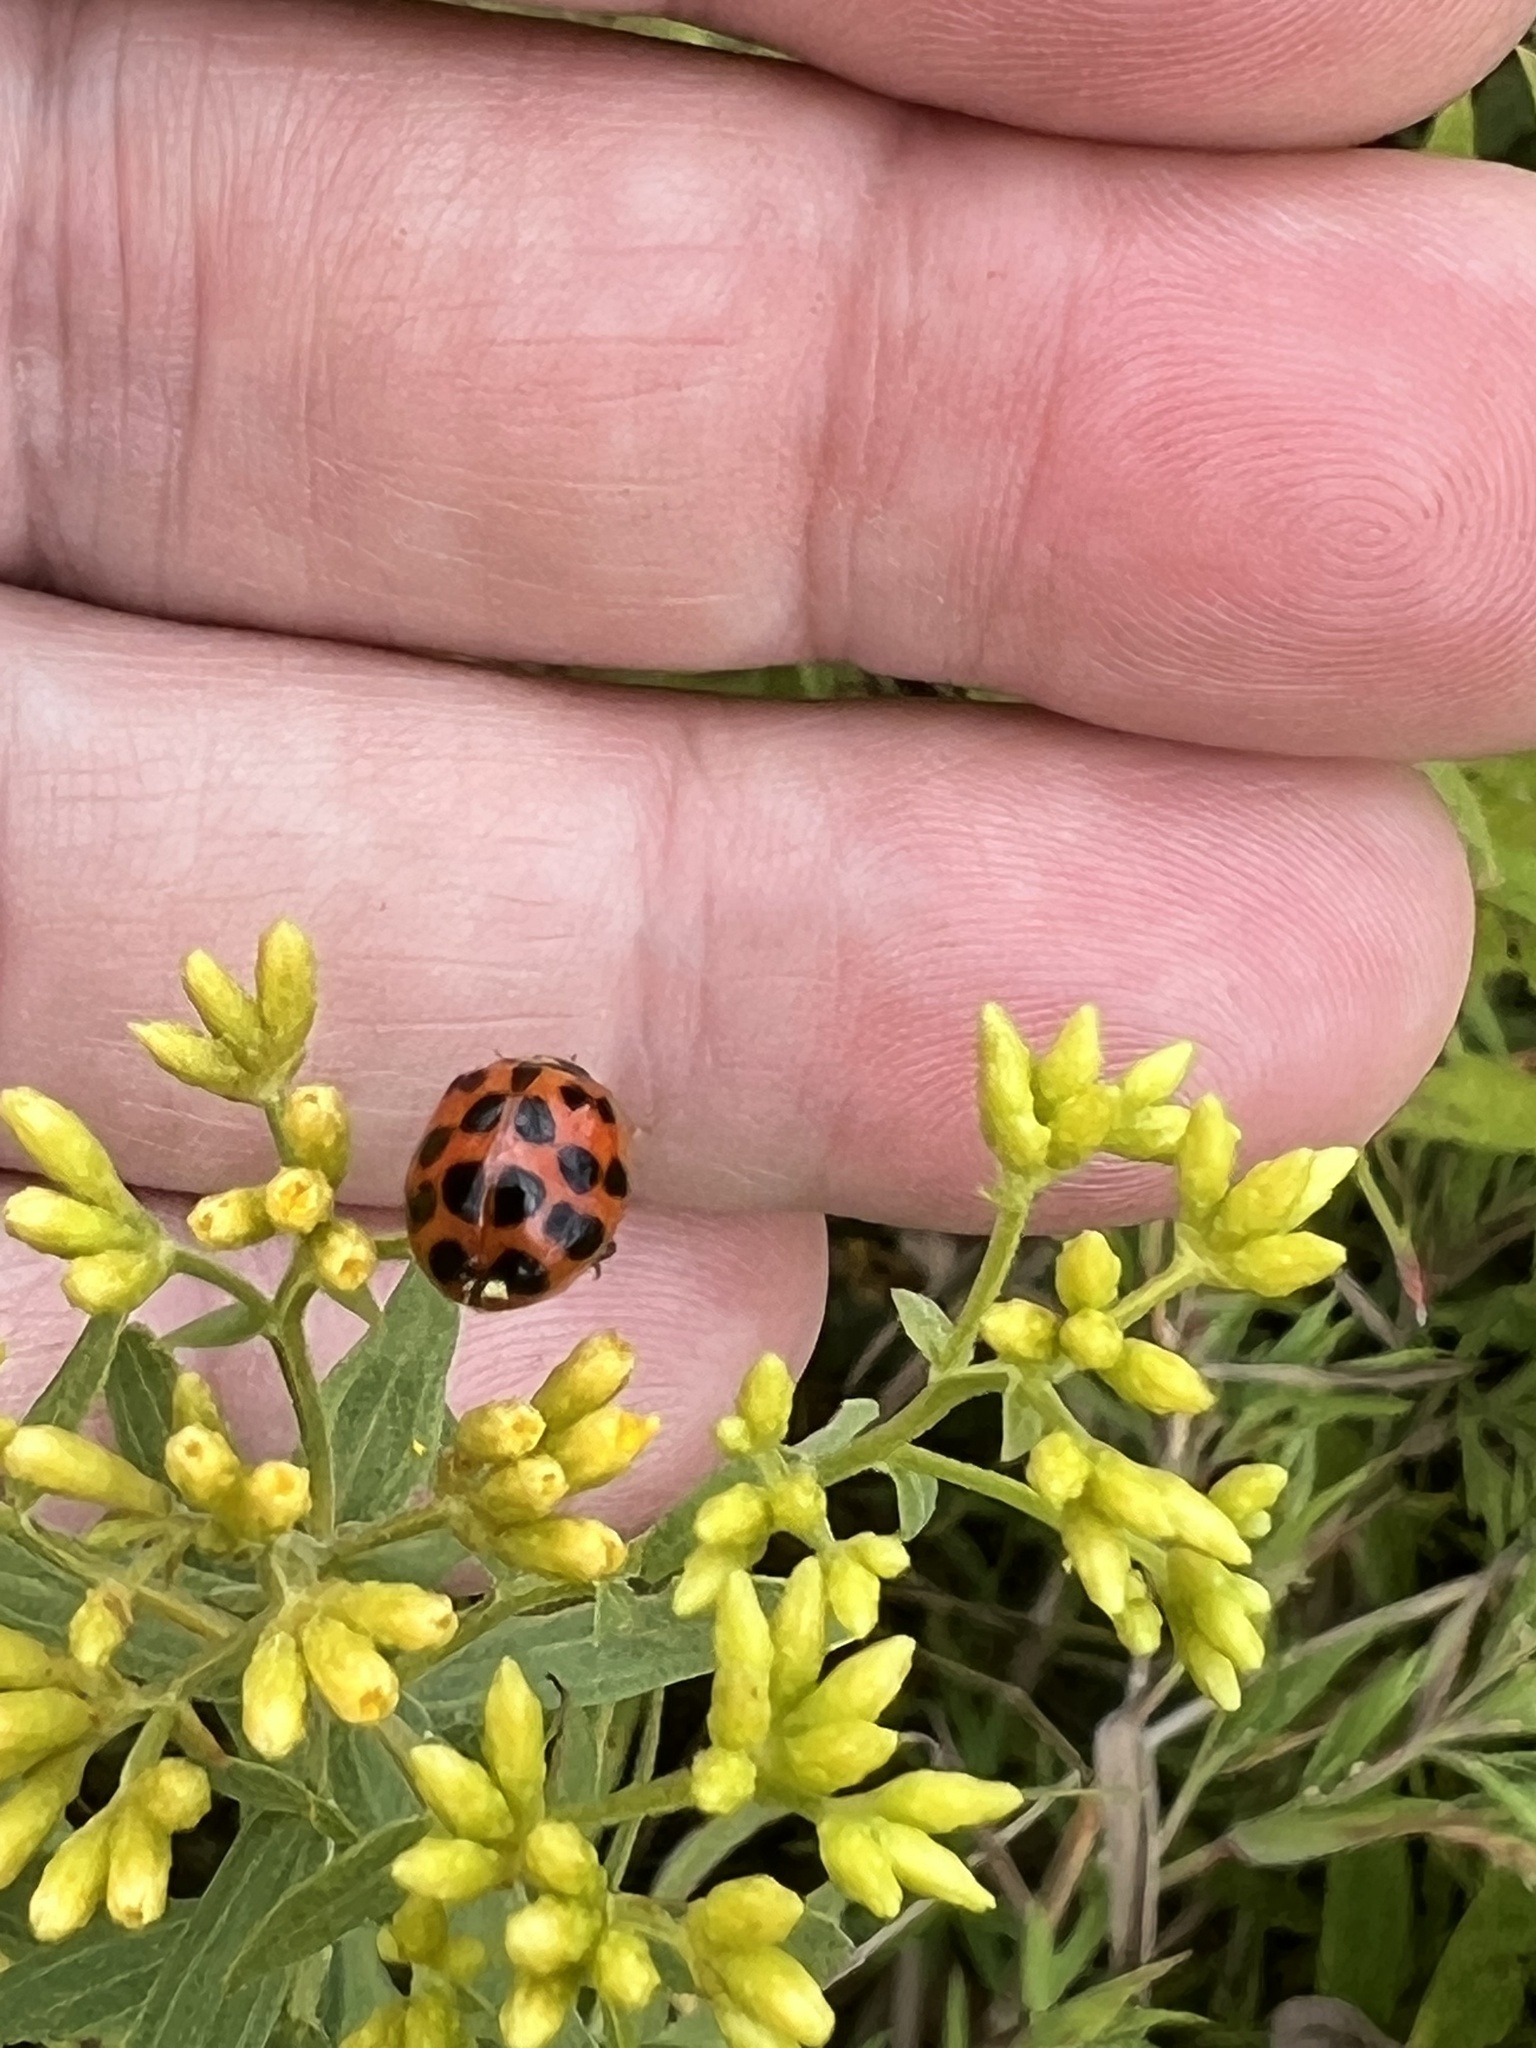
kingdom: Animalia
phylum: Arthropoda
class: Insecta
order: Coleoptera
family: Coccinellidae
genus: Harmonia
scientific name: Harmonia axyridis
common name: Harlequin ladybird
